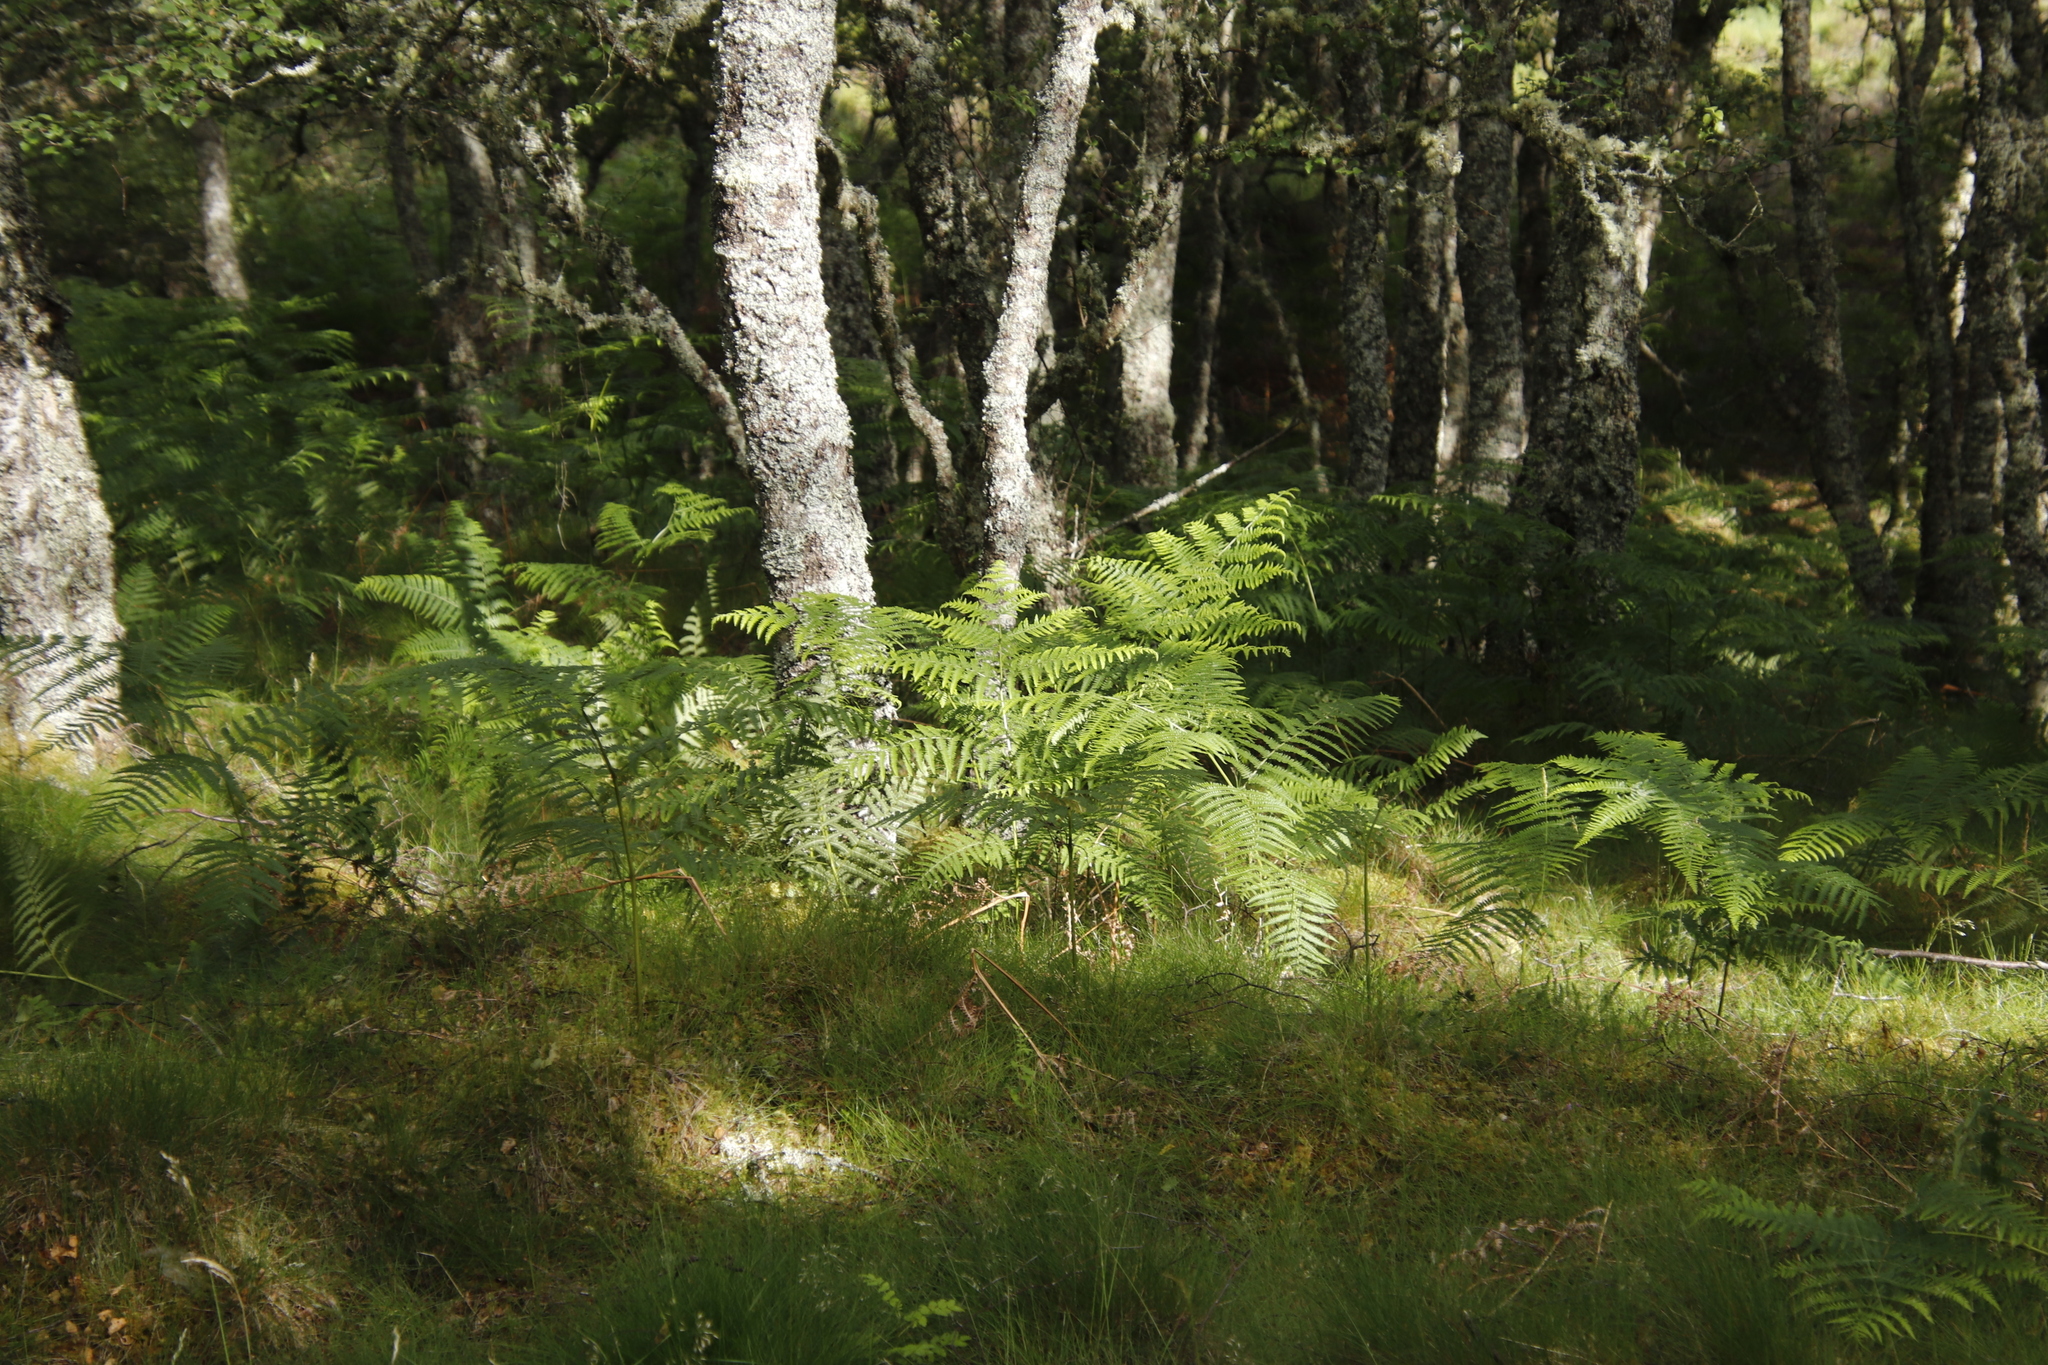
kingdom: Plantae
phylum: Tracheophyta
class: Polypodiopsida
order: Polypodiales
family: Dennstaedtiaceae
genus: Pteridium
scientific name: Pteridium aquilinum
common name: Bracken
